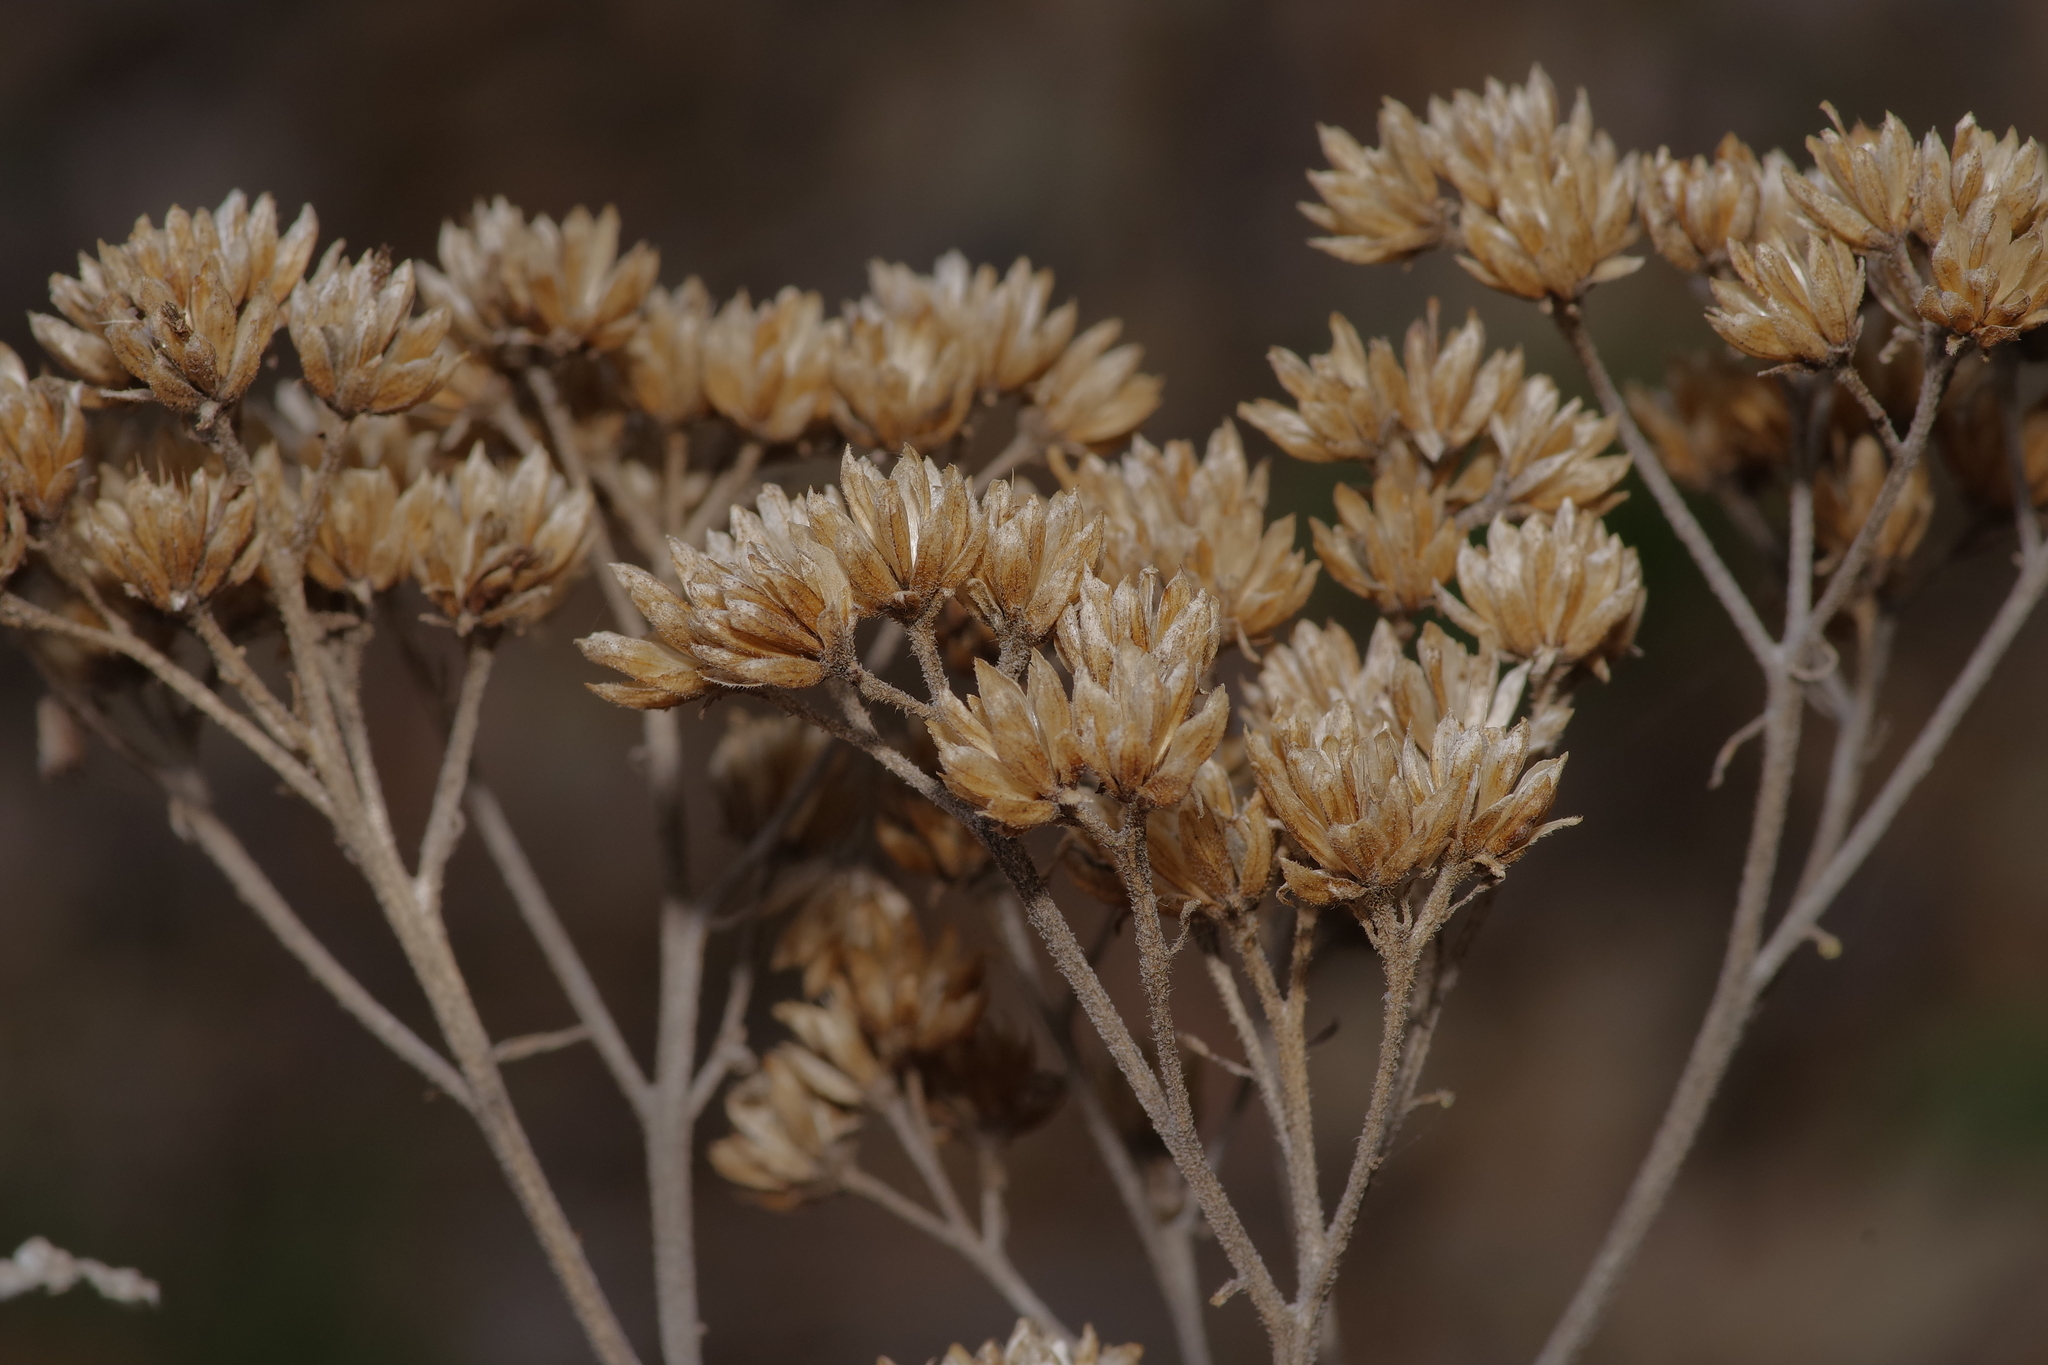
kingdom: Plantae
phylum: Tracheophyta
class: Magnoliopsida
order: Asterales
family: Asteraceae
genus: Verbesina
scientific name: Verbesina virginica
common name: Frostweed
